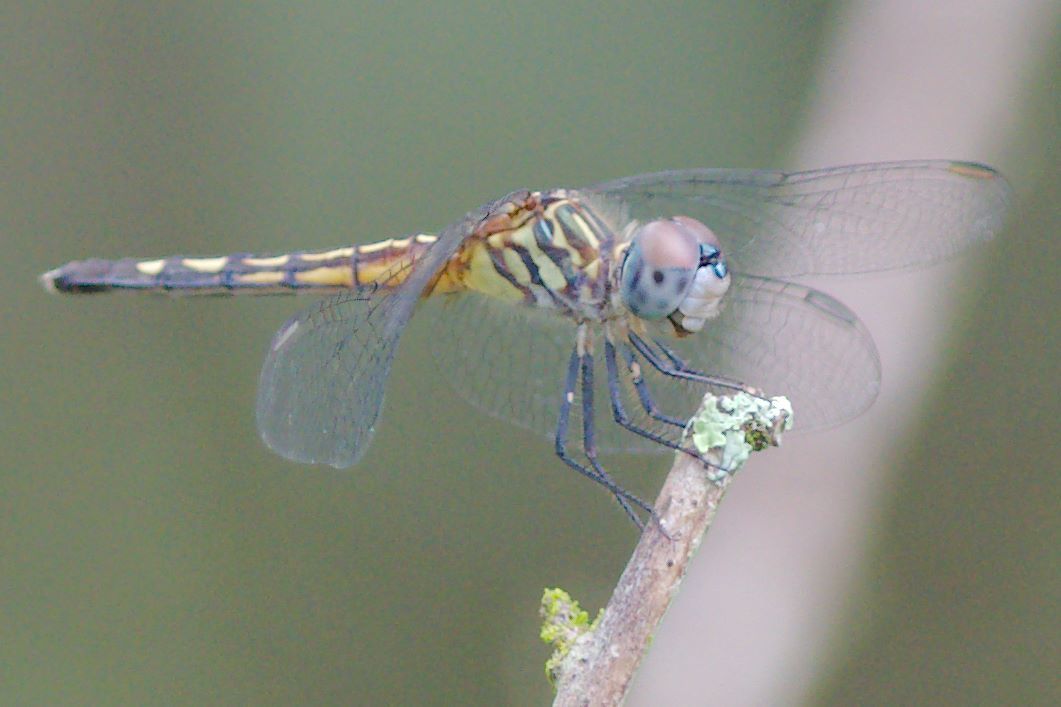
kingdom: Animalia
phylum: Arthropoda
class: Insecta
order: Odonata
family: Libellulidae
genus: Pachydiplax
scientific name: Pachydiplax longipennis
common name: Blue dasher
